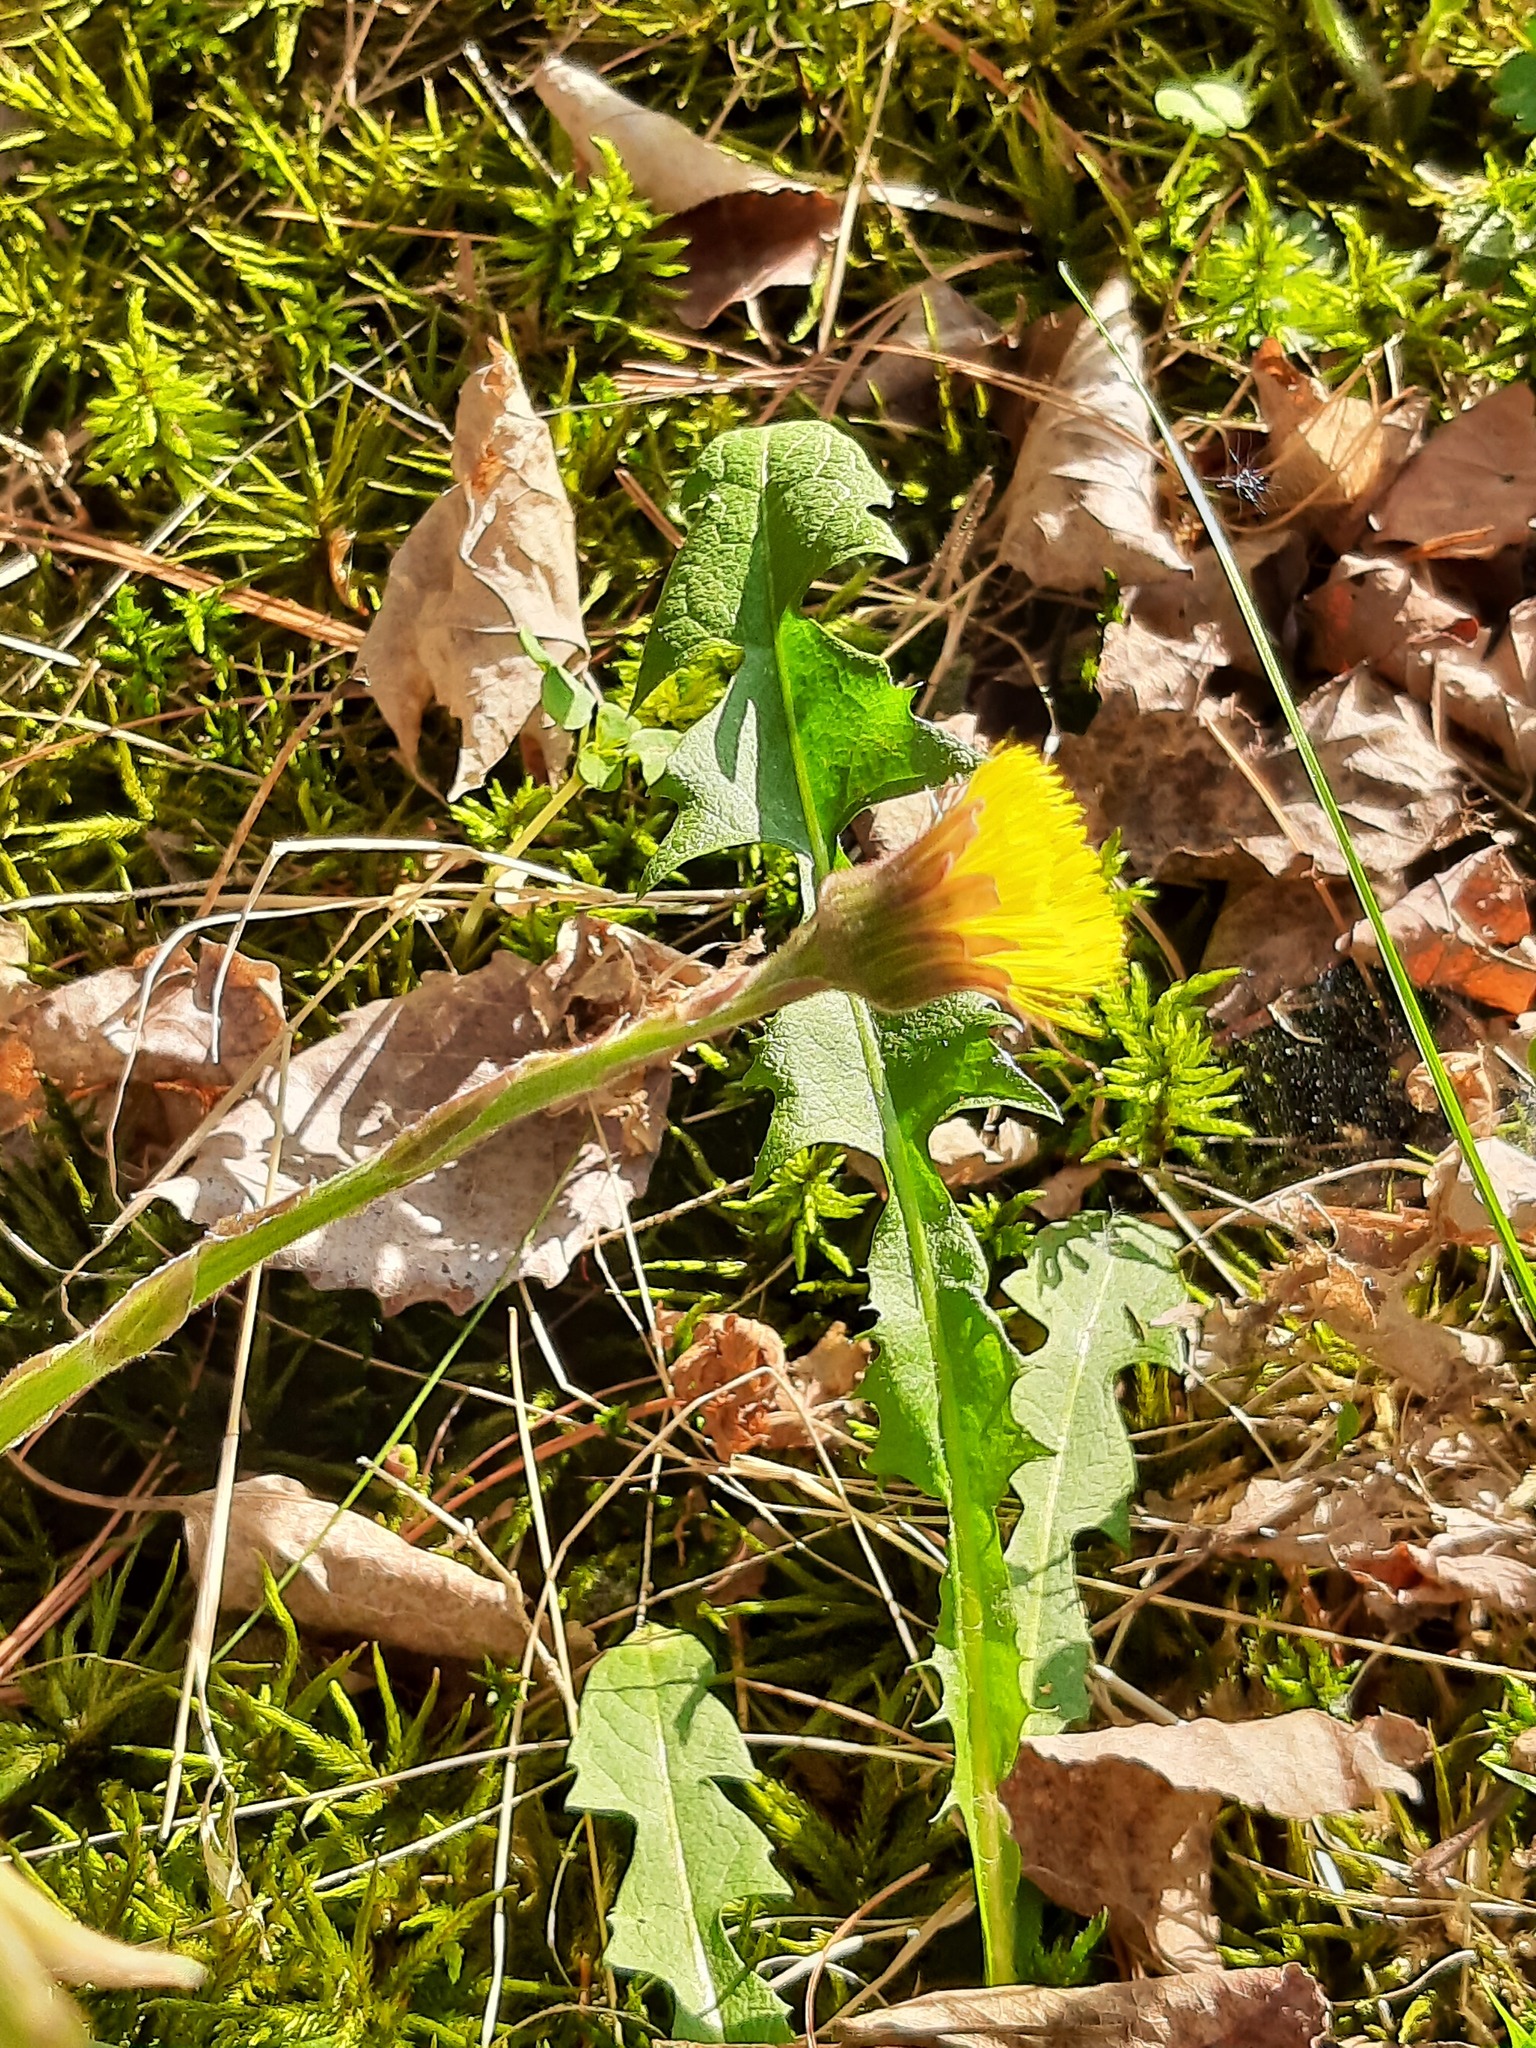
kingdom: Plantae
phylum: Tracheophyta
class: Magnoliopsida
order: Asterales
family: Asteraceae
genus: Tussilago
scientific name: Tussilago farfara
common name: Coltsfoot
